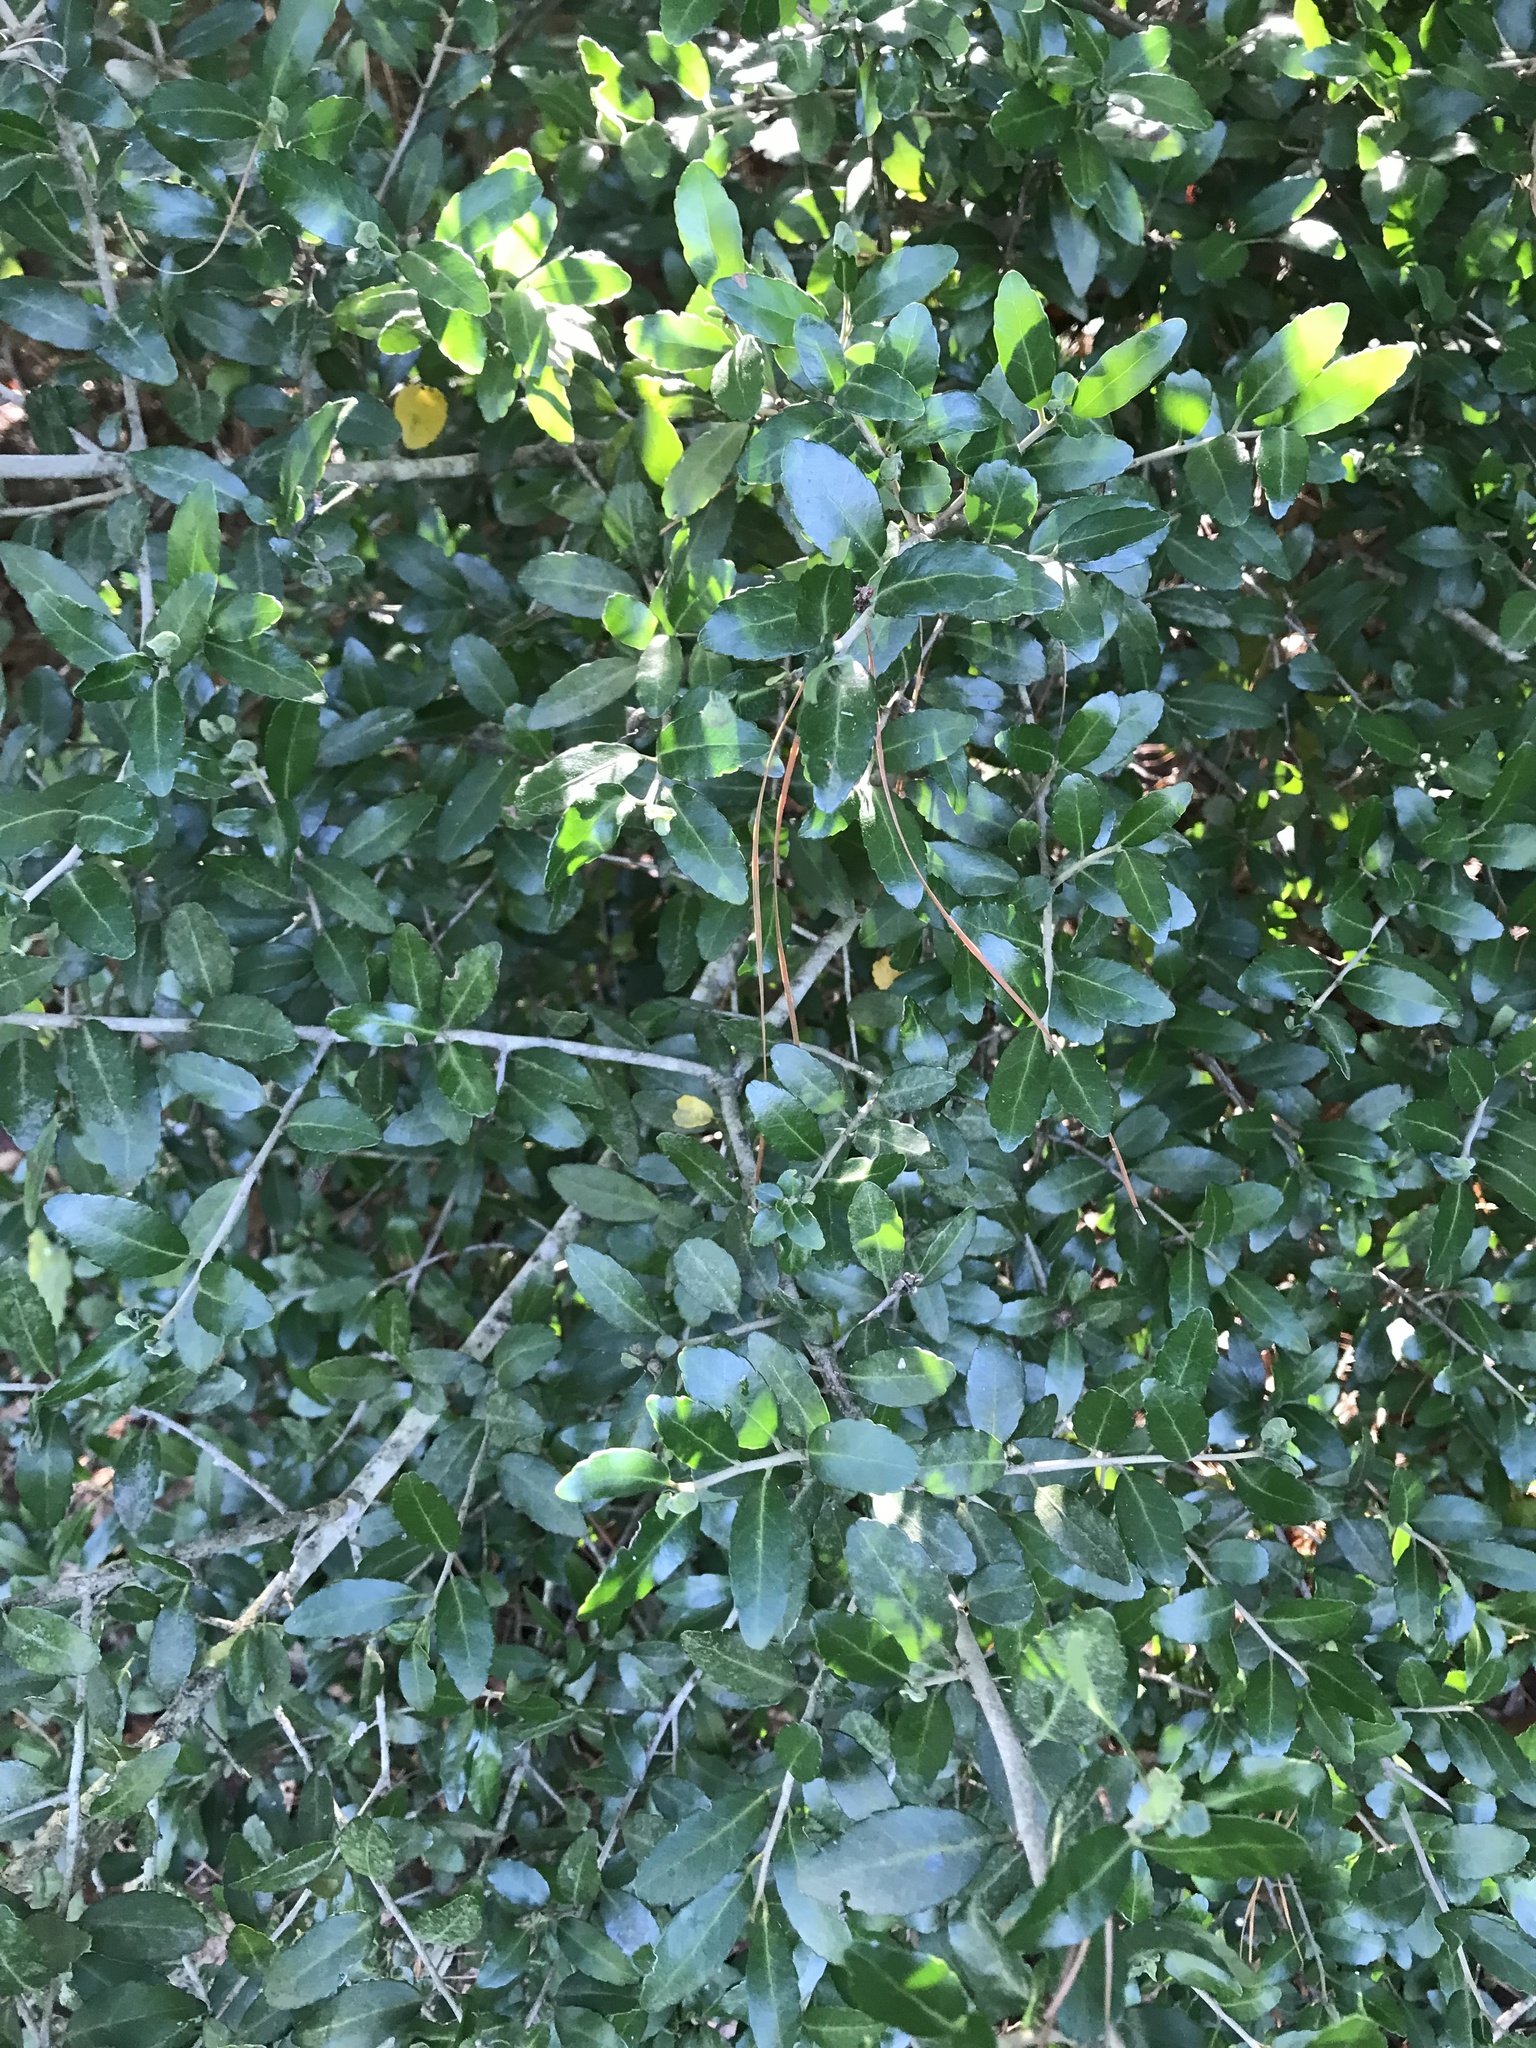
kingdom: Plantae
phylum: Tracheophyta
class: Magnoliopsida
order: Aquifoliales
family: Aquifoliaceae
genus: Ilex
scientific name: Ilex vomitoria
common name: Yaupon holly
